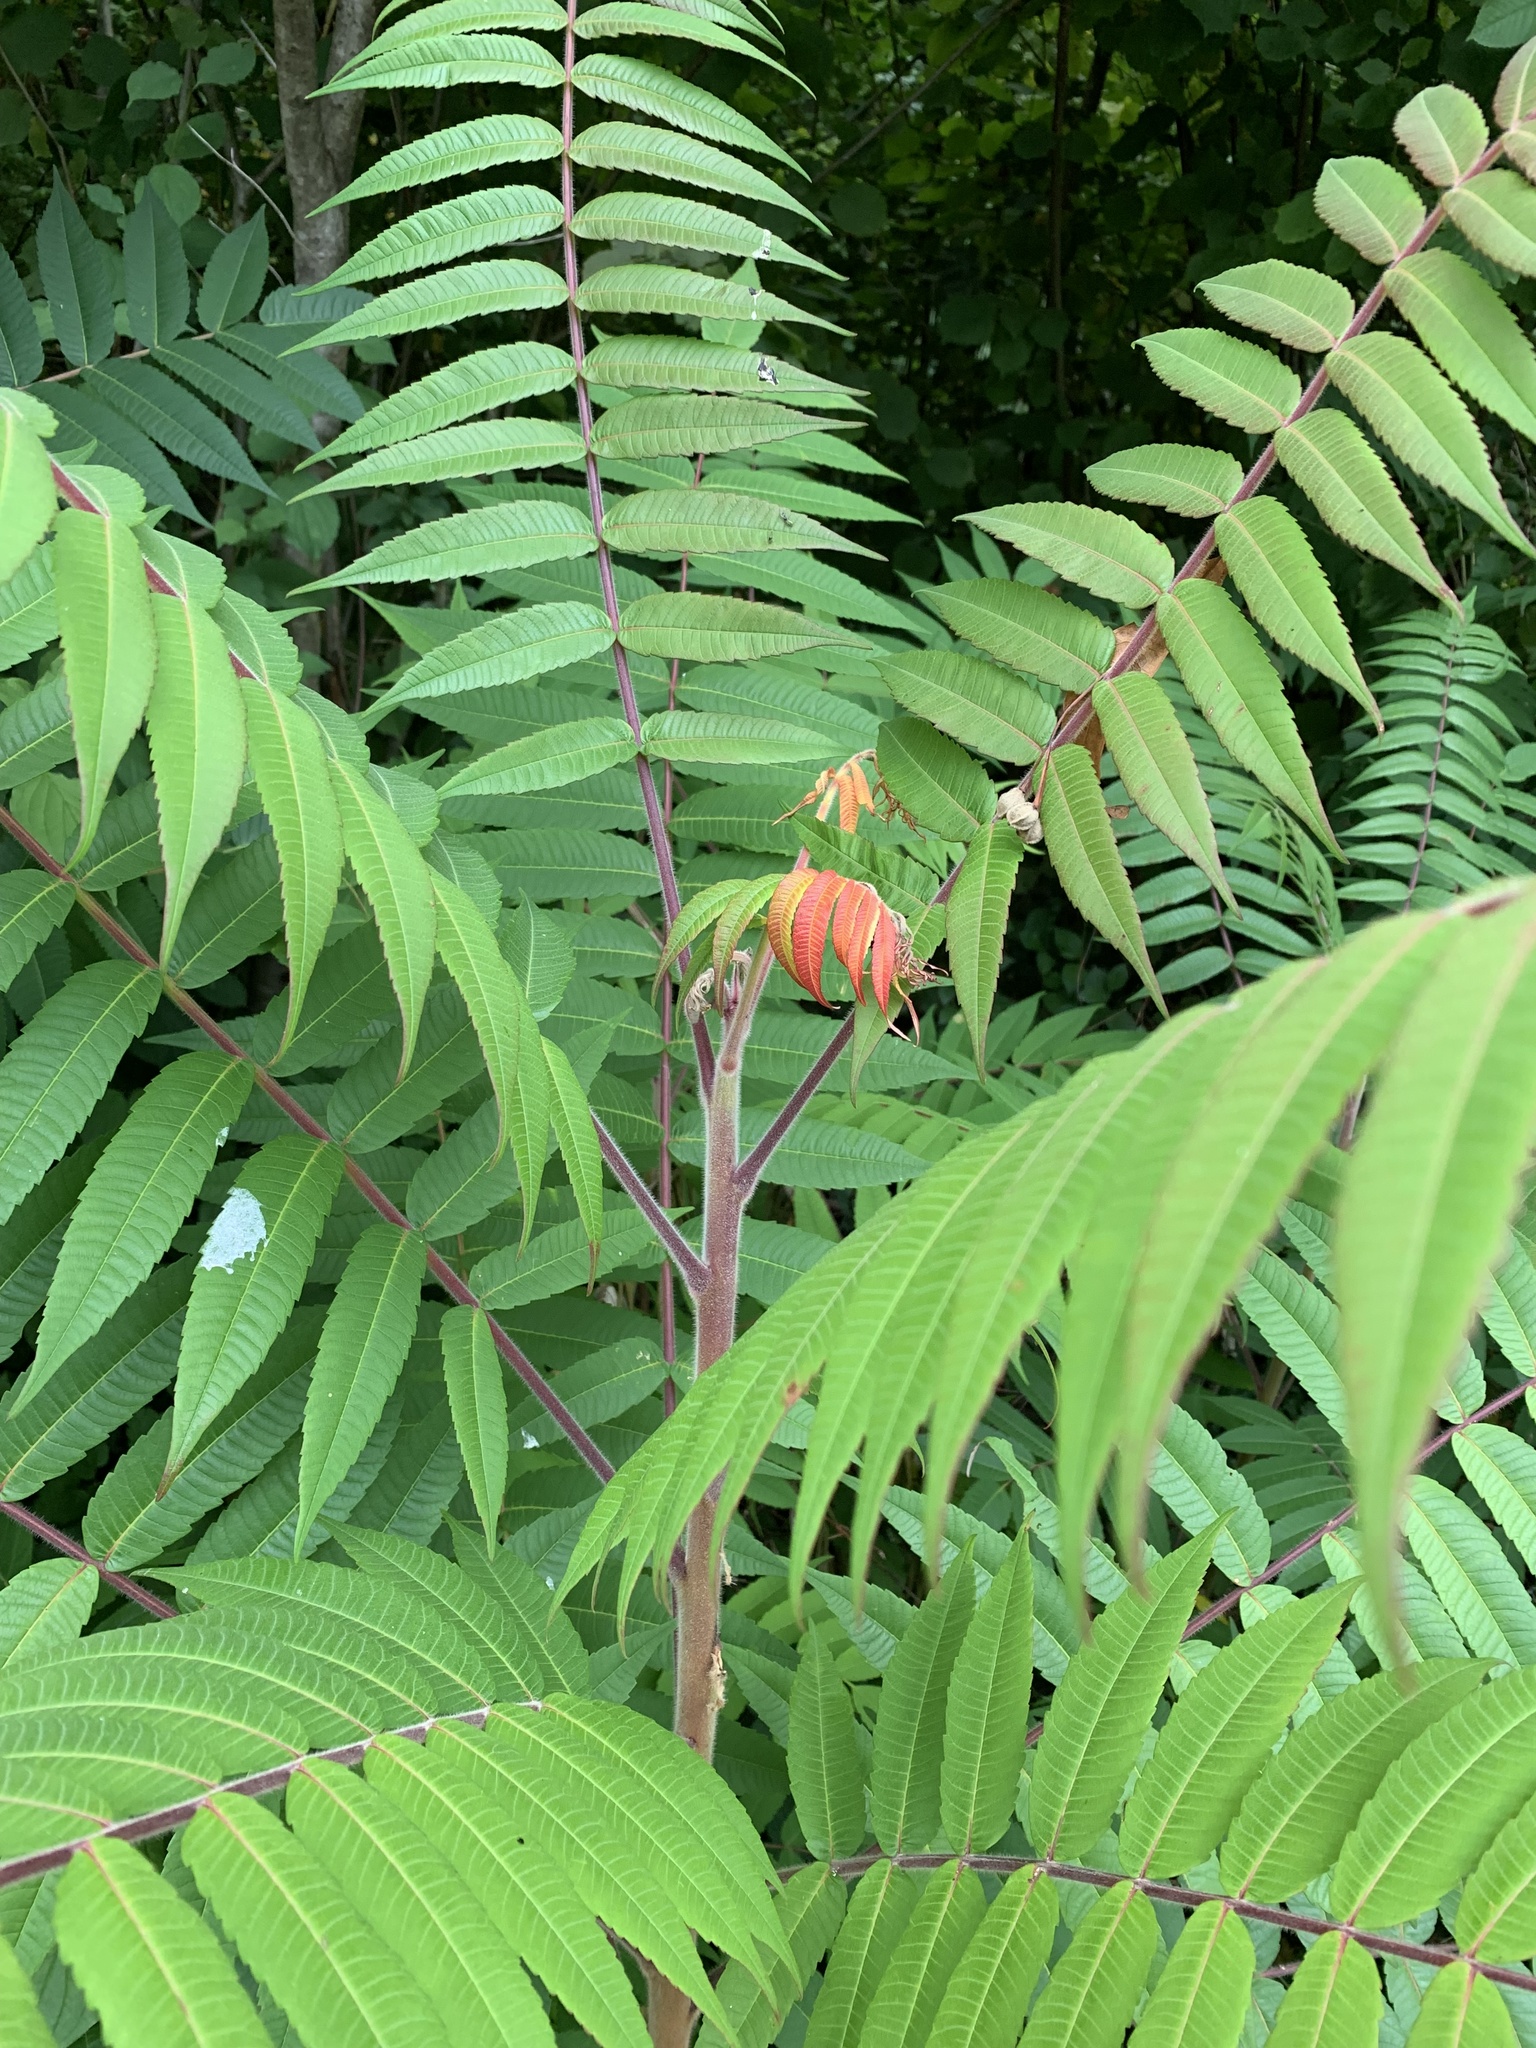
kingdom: Plantae
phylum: Tracheophyta
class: Magnoliopsida
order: Sapindales
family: Anacardiaceae
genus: Rhus
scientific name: Rhus typhina
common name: Staghorn sumac
